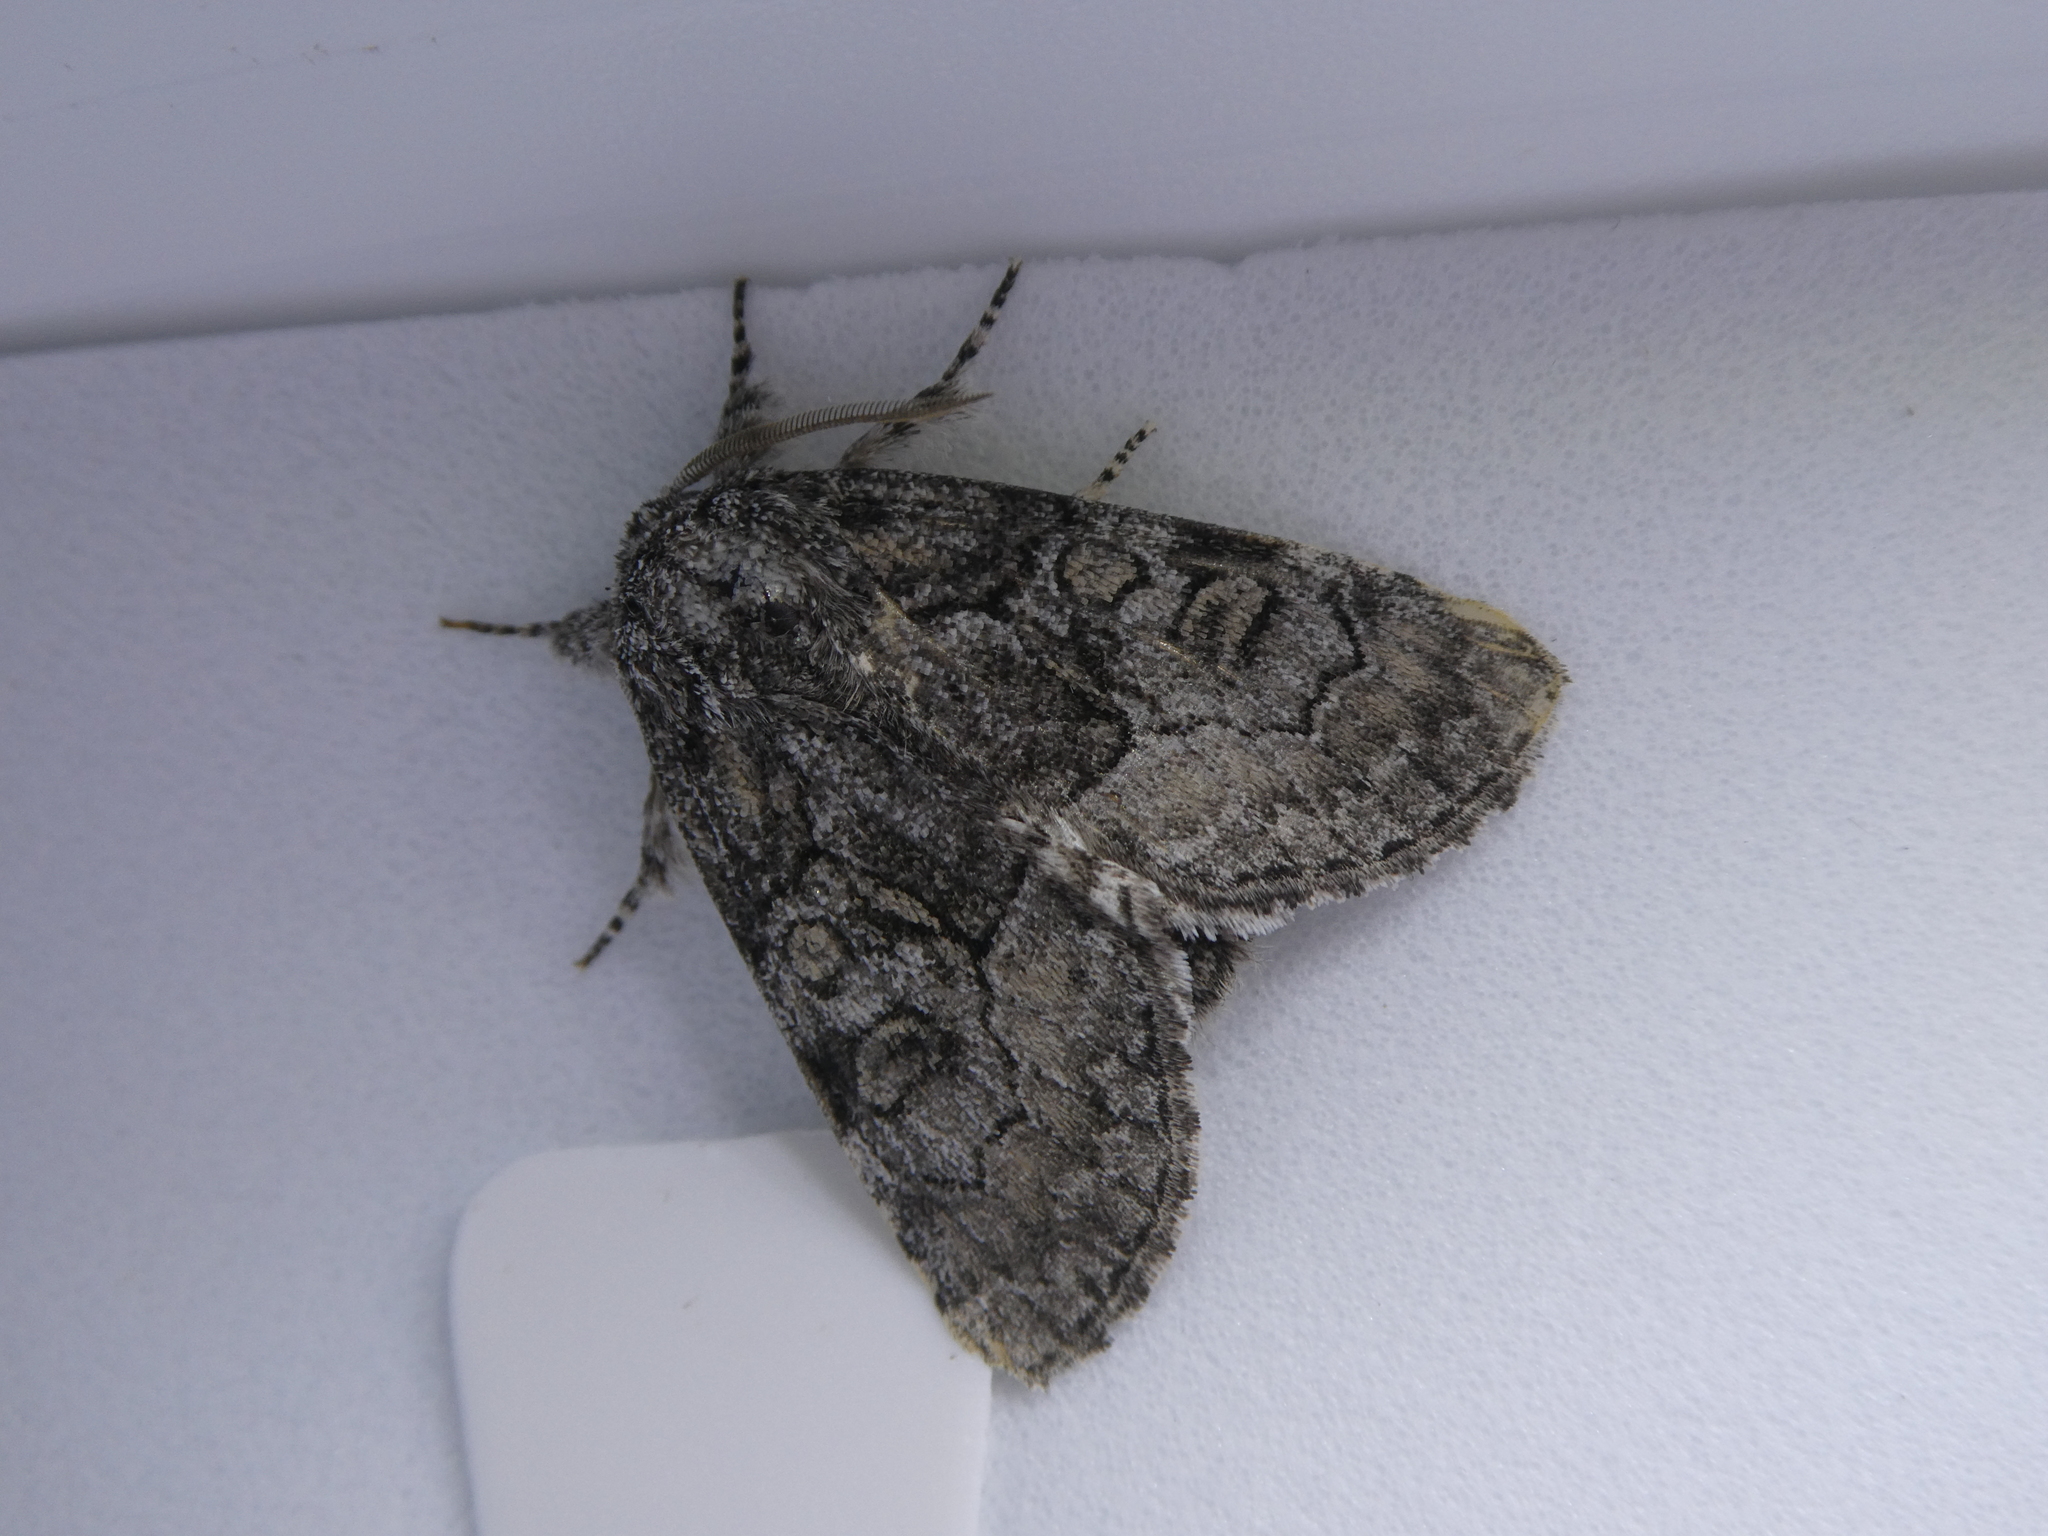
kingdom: Animalia
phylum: Arthropoda
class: Insecta
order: Lepidoptera
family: Noctuidae
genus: Raphia
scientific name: Raphia frater
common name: Brother
